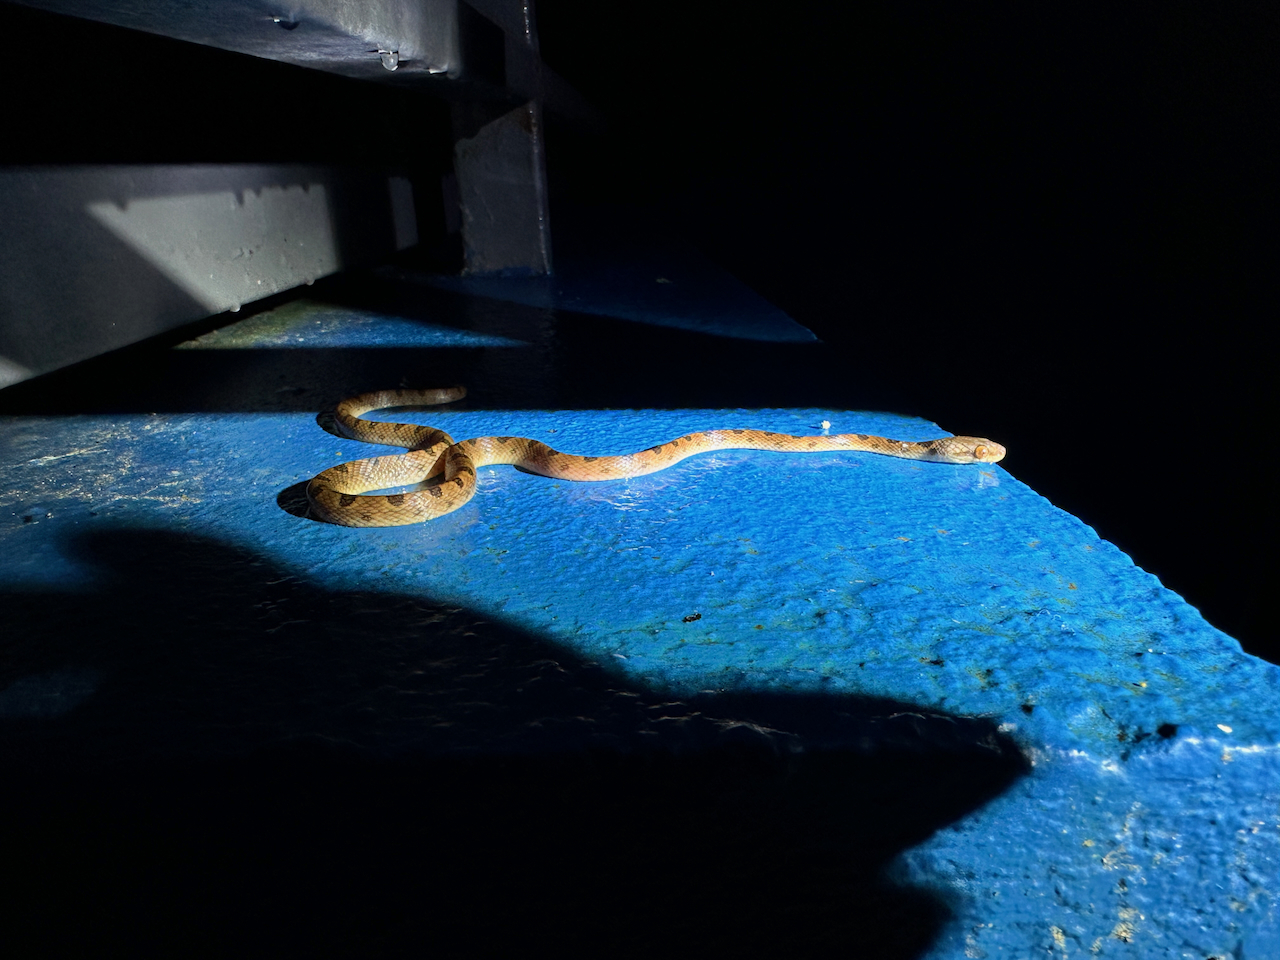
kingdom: Animalia
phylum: Chordata
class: Squamata
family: Colubridae
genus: Leptodeira
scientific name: Leptodeira ornata
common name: Northern cat-eyed snake
